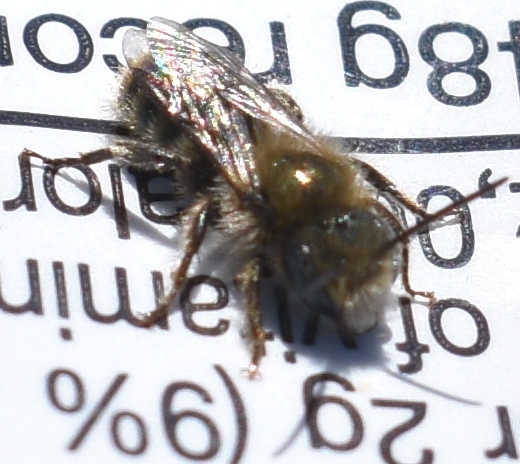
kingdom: Animalia
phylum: Arthropoda
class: Insecta
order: Hymenoptera
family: Megachilidae
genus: Osmia
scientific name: Osmia
